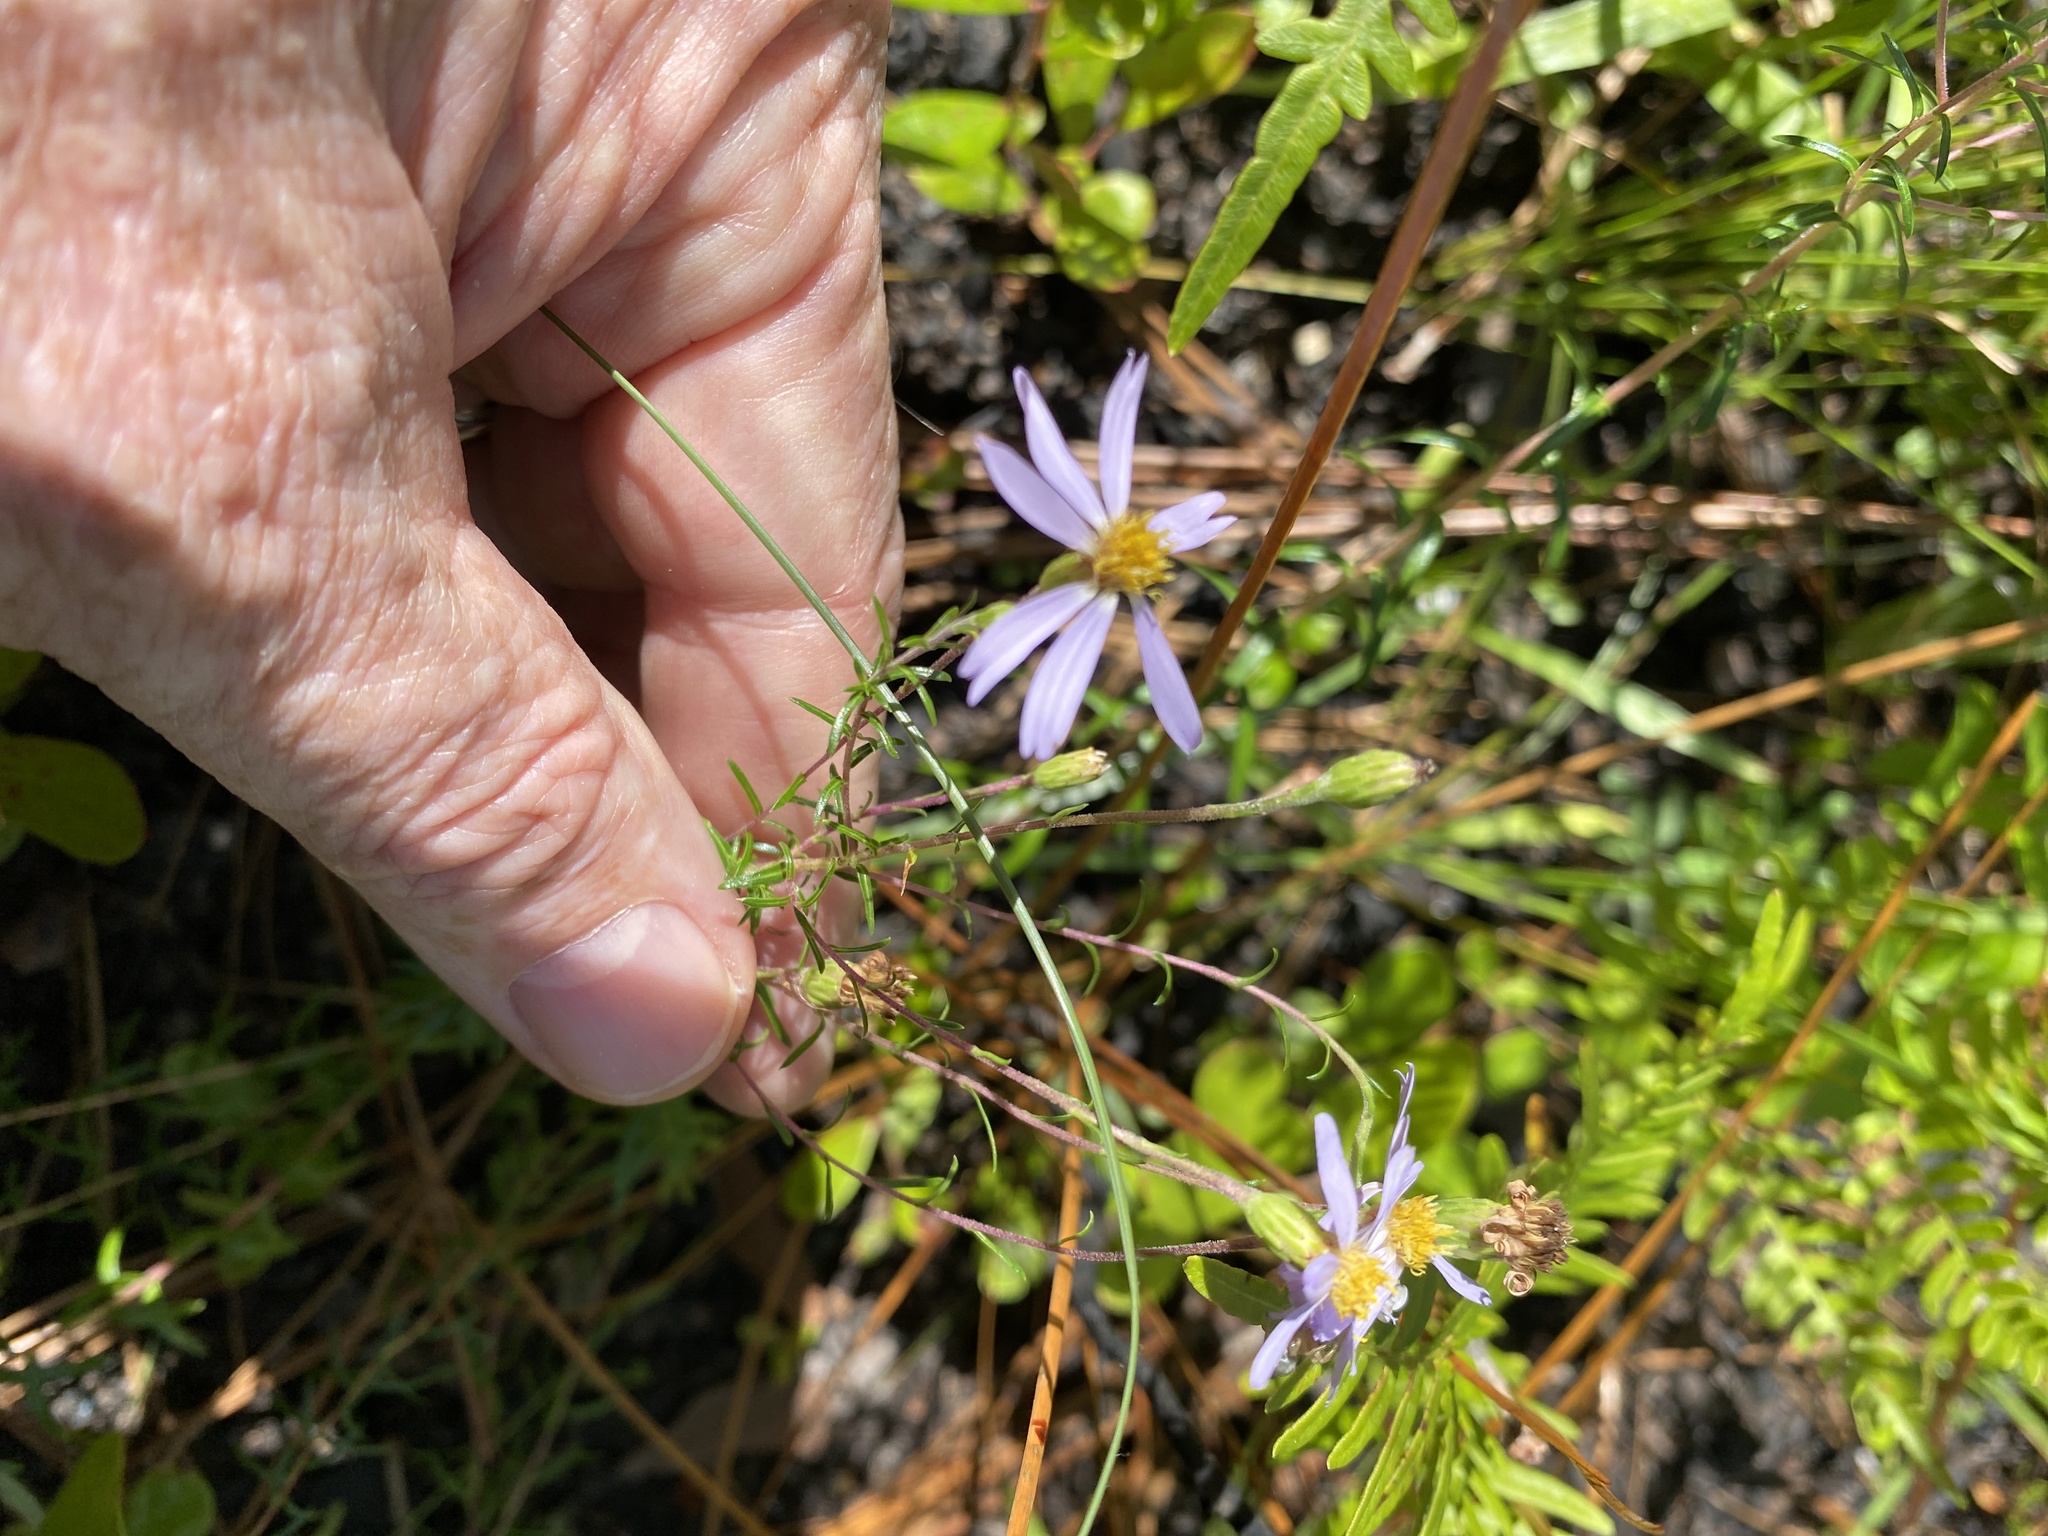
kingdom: Plantae
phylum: Tracheophyta
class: Magnoliopsida
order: Asterales
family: Asteraceae
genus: Ionactis
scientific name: Ionactis linariifolia
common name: Flax-leaf aster
